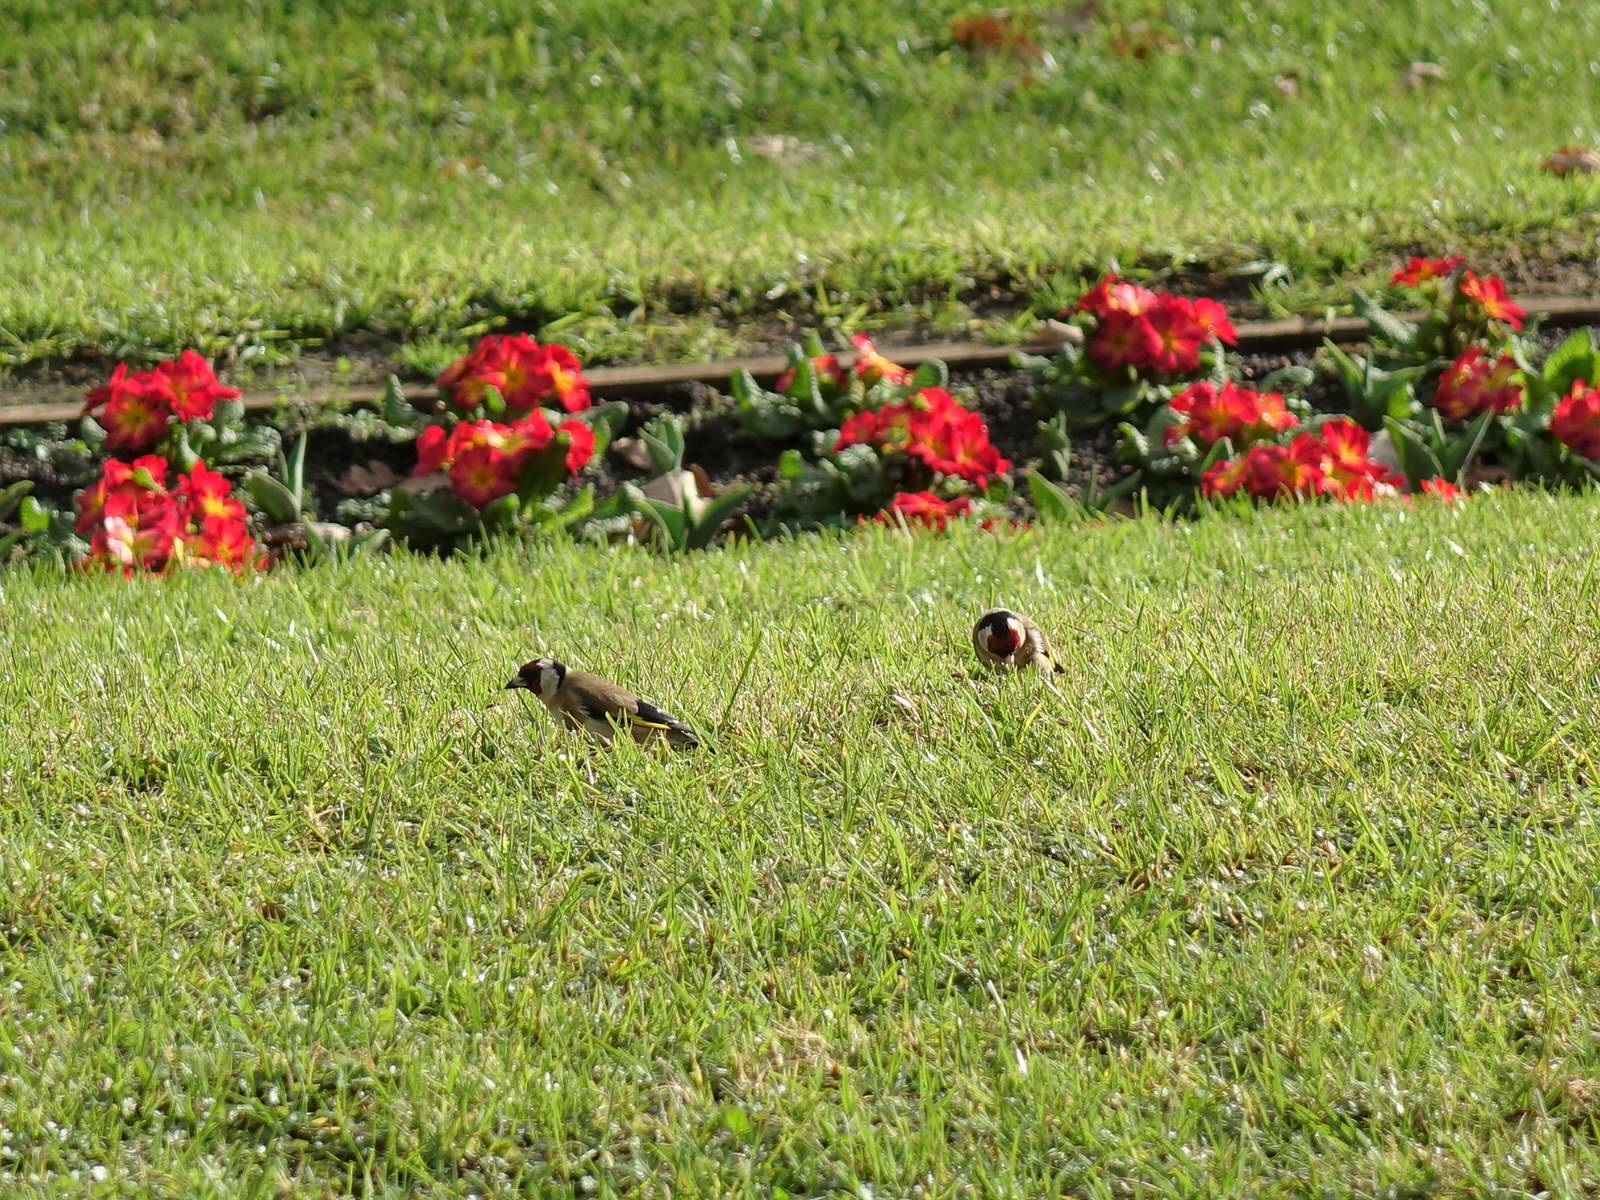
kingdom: Animalia
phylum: Chordata
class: Aves
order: Passeriformes
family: Fringillidae
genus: Carduelis
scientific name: Carduelis carduelis
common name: European goldfinch
